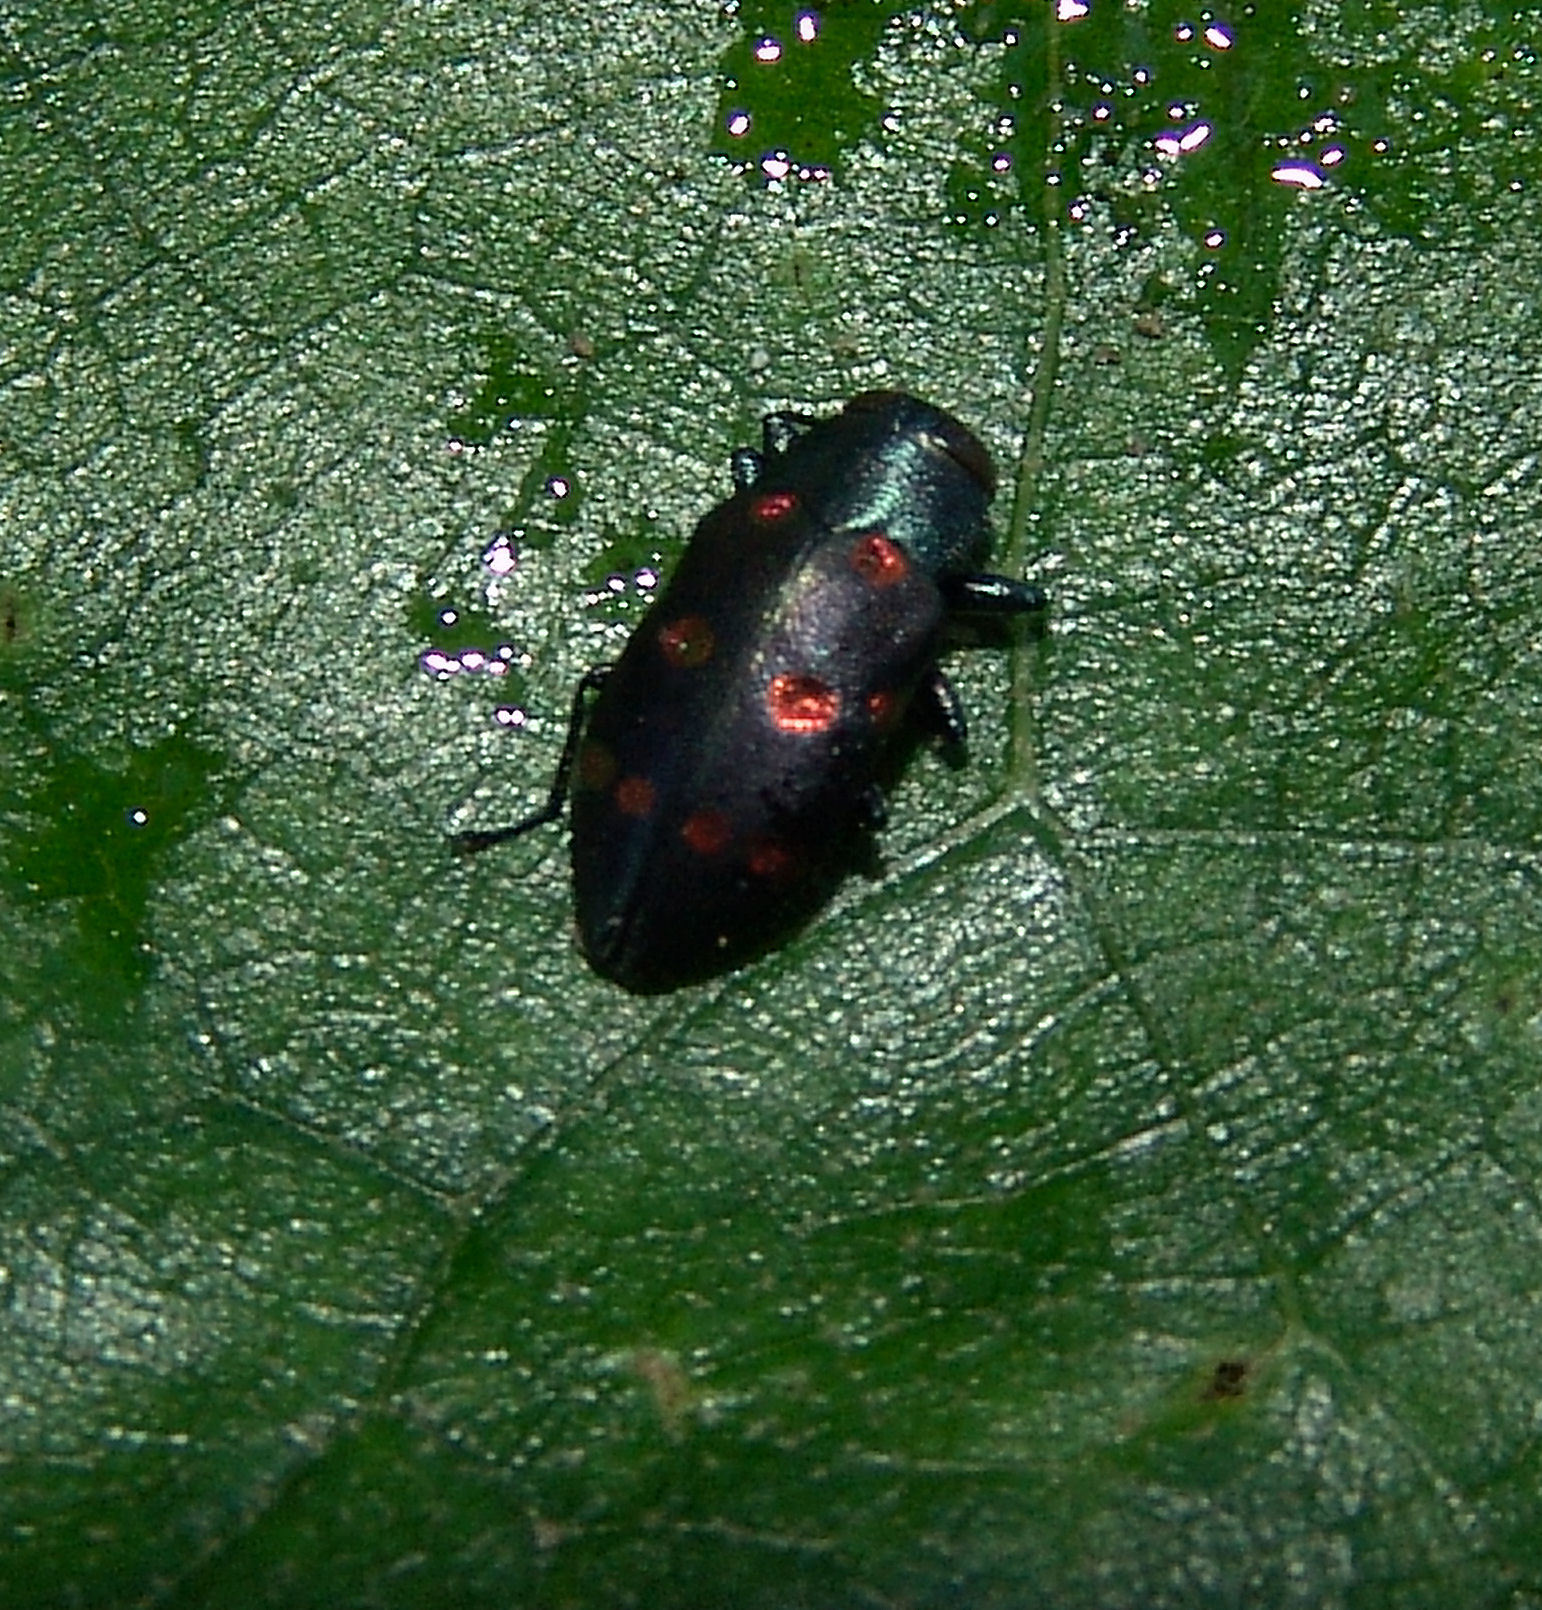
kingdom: Animalia
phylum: Arthropoda
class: Insecta
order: Coleoptera
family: Buprestidae
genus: Chrysobothris
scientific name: Chrysobothris chrysoela
